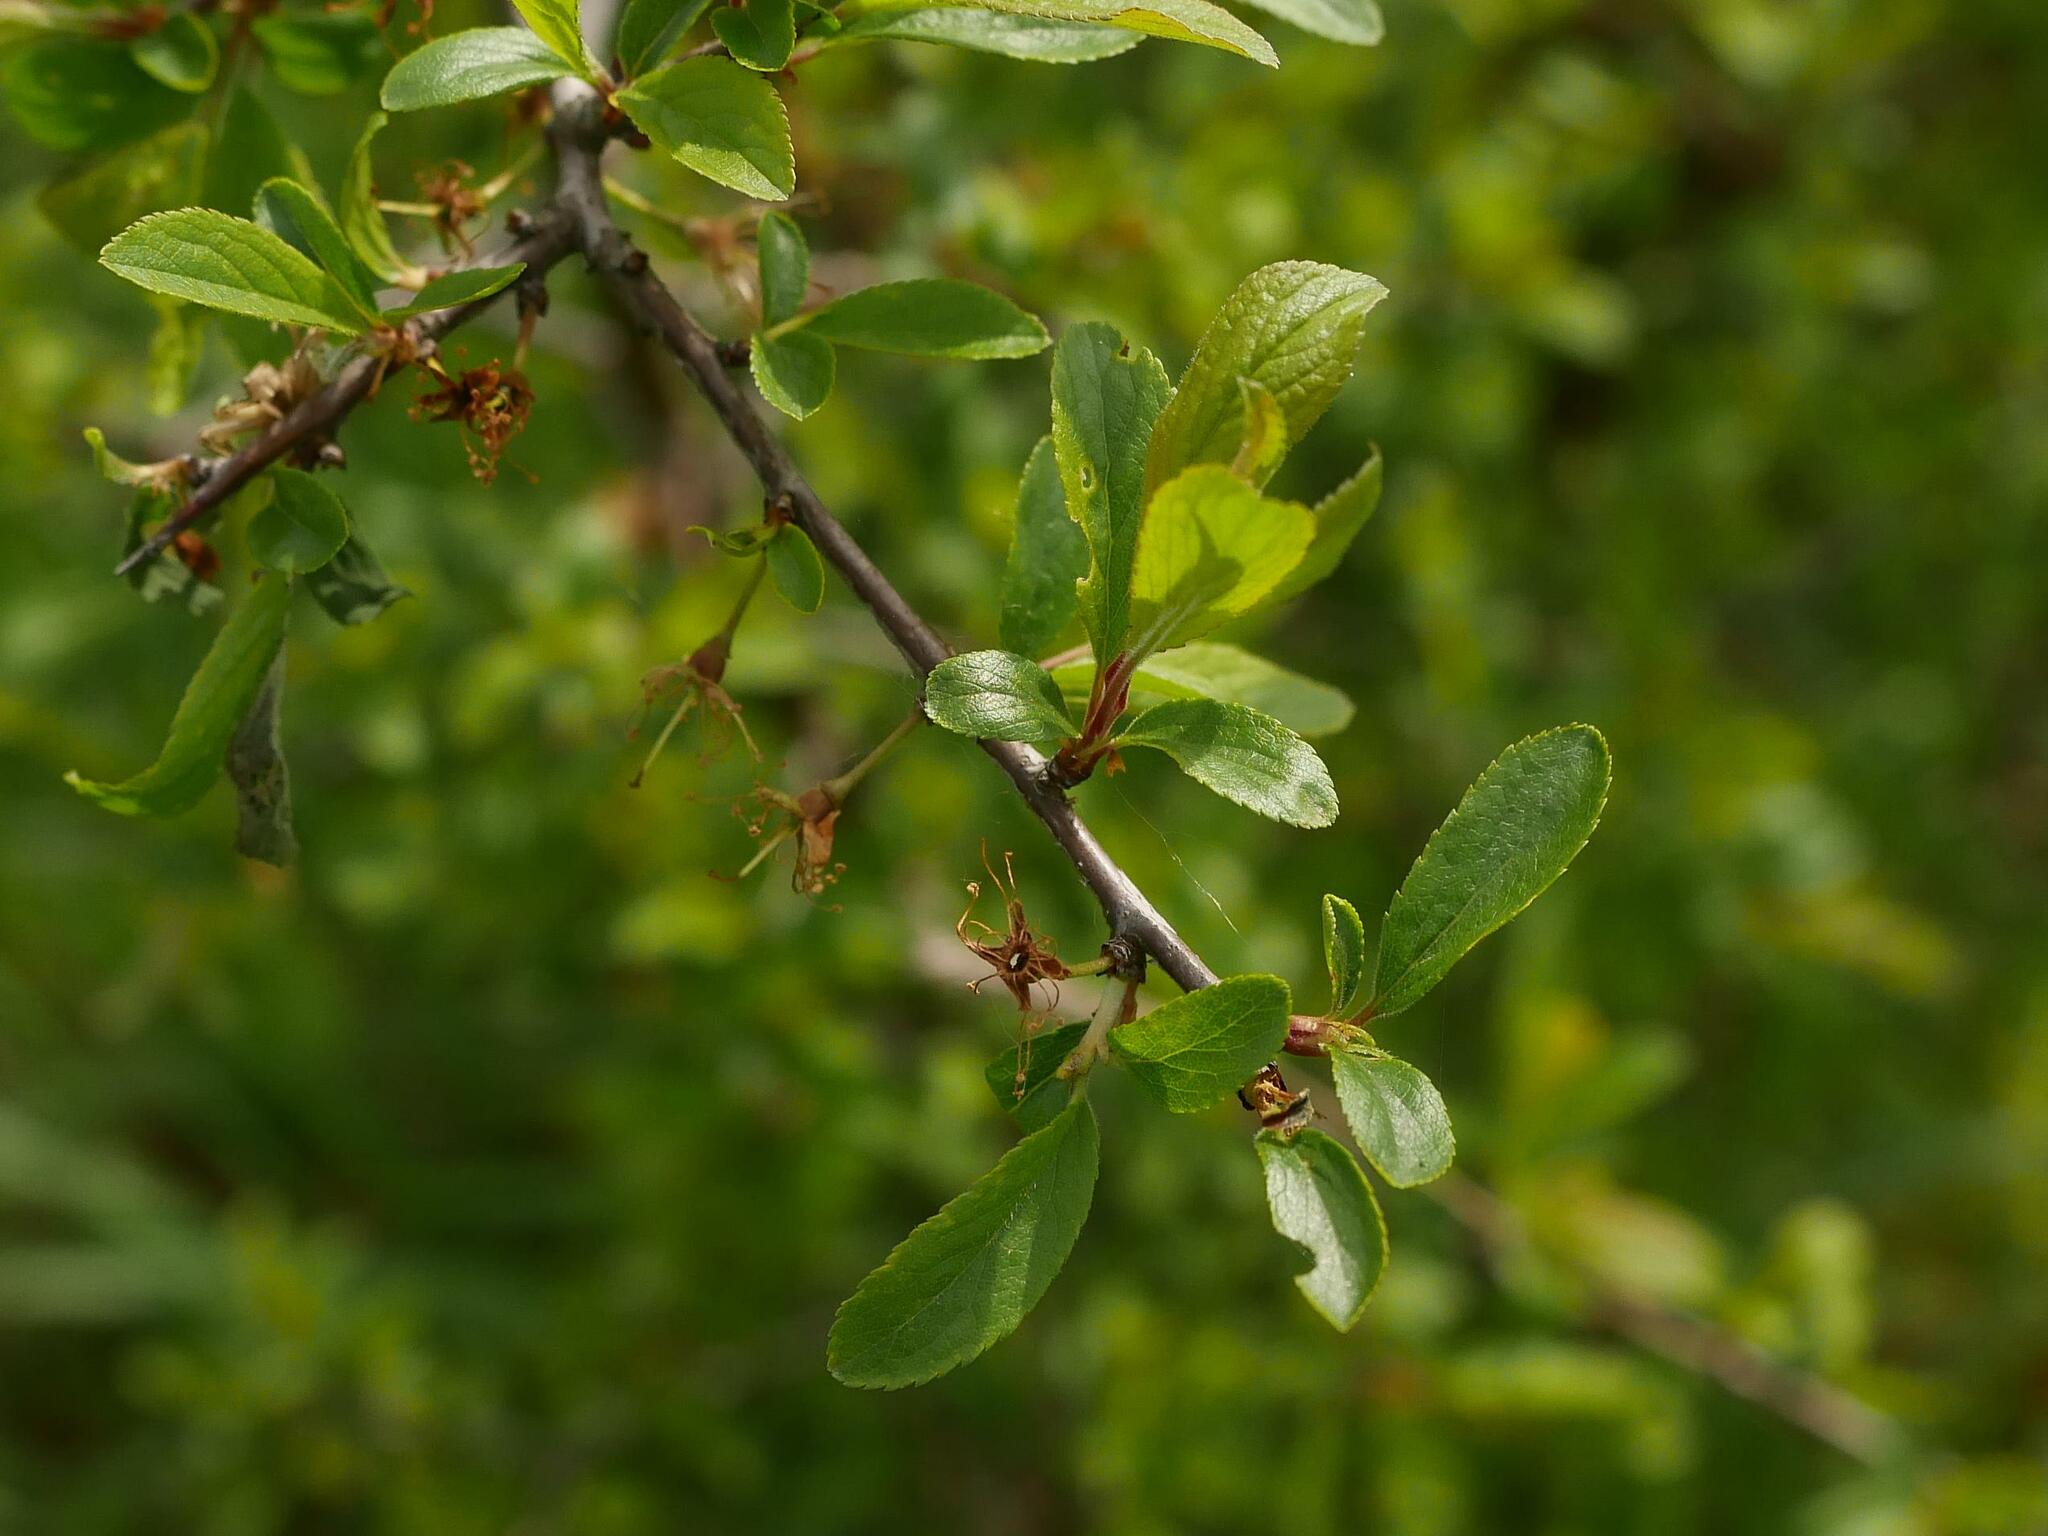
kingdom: Plantae
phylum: Tracheophyta
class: Magnoliopsida
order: Rosales
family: Rosaceae
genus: Prunus
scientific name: Prunus spinosa
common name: Blackthorn
